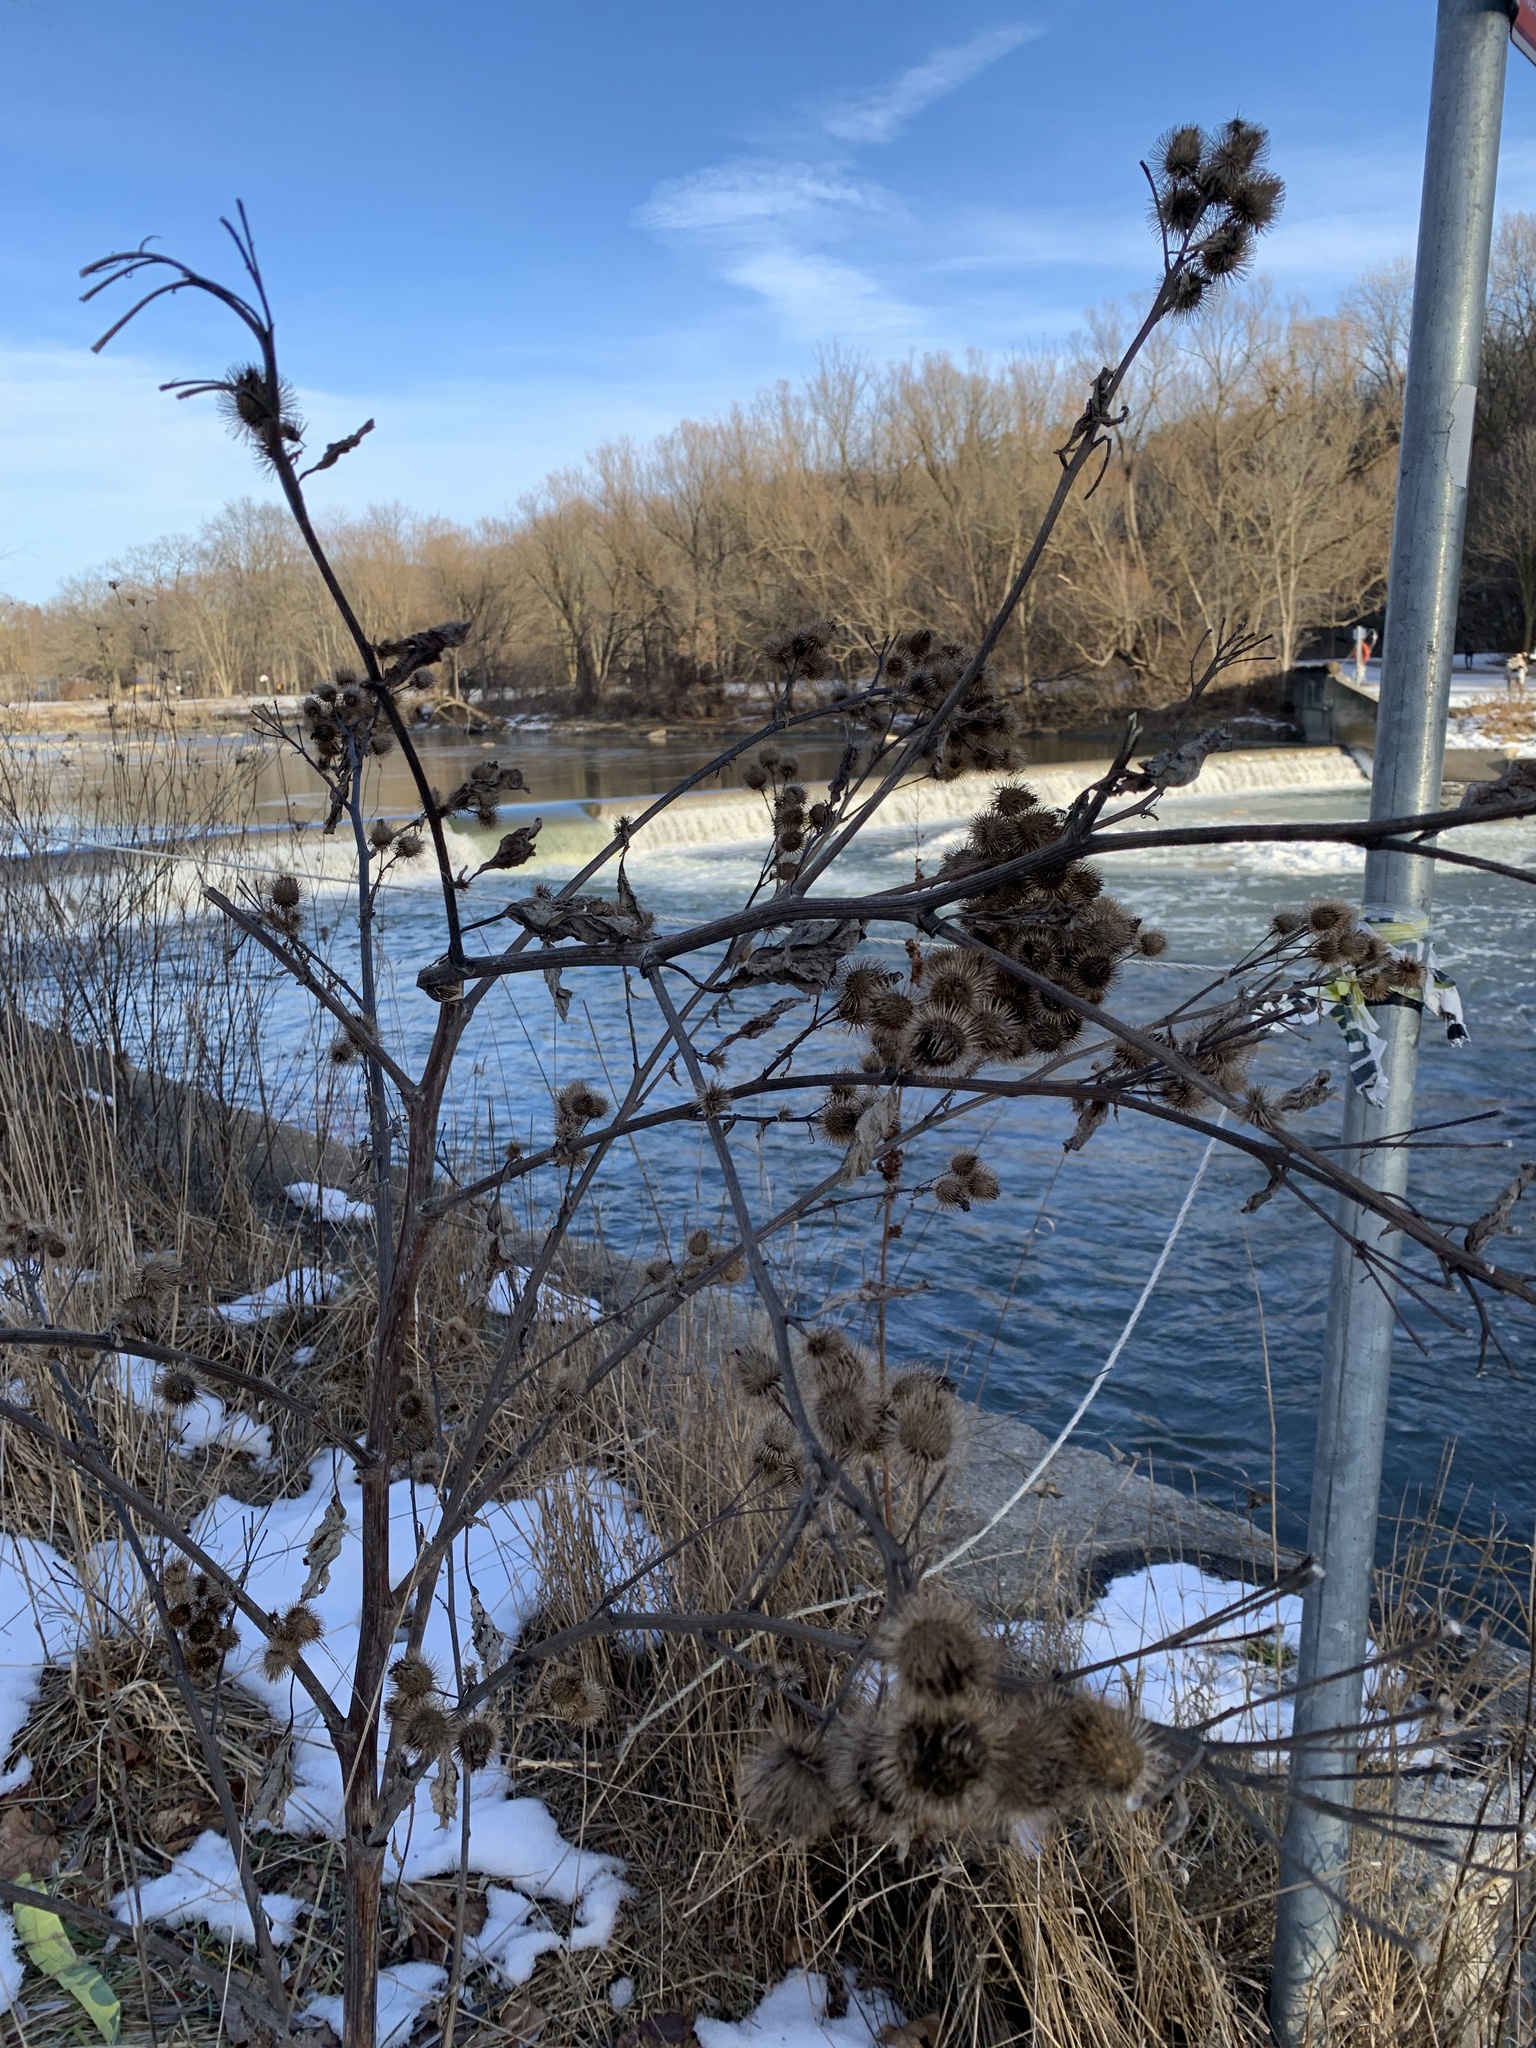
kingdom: Plantae
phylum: Tracheophyta
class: Magnoliopsida
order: Asterales
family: Asteraceae
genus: Arctium
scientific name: Arctium lappa
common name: Greater burdock
